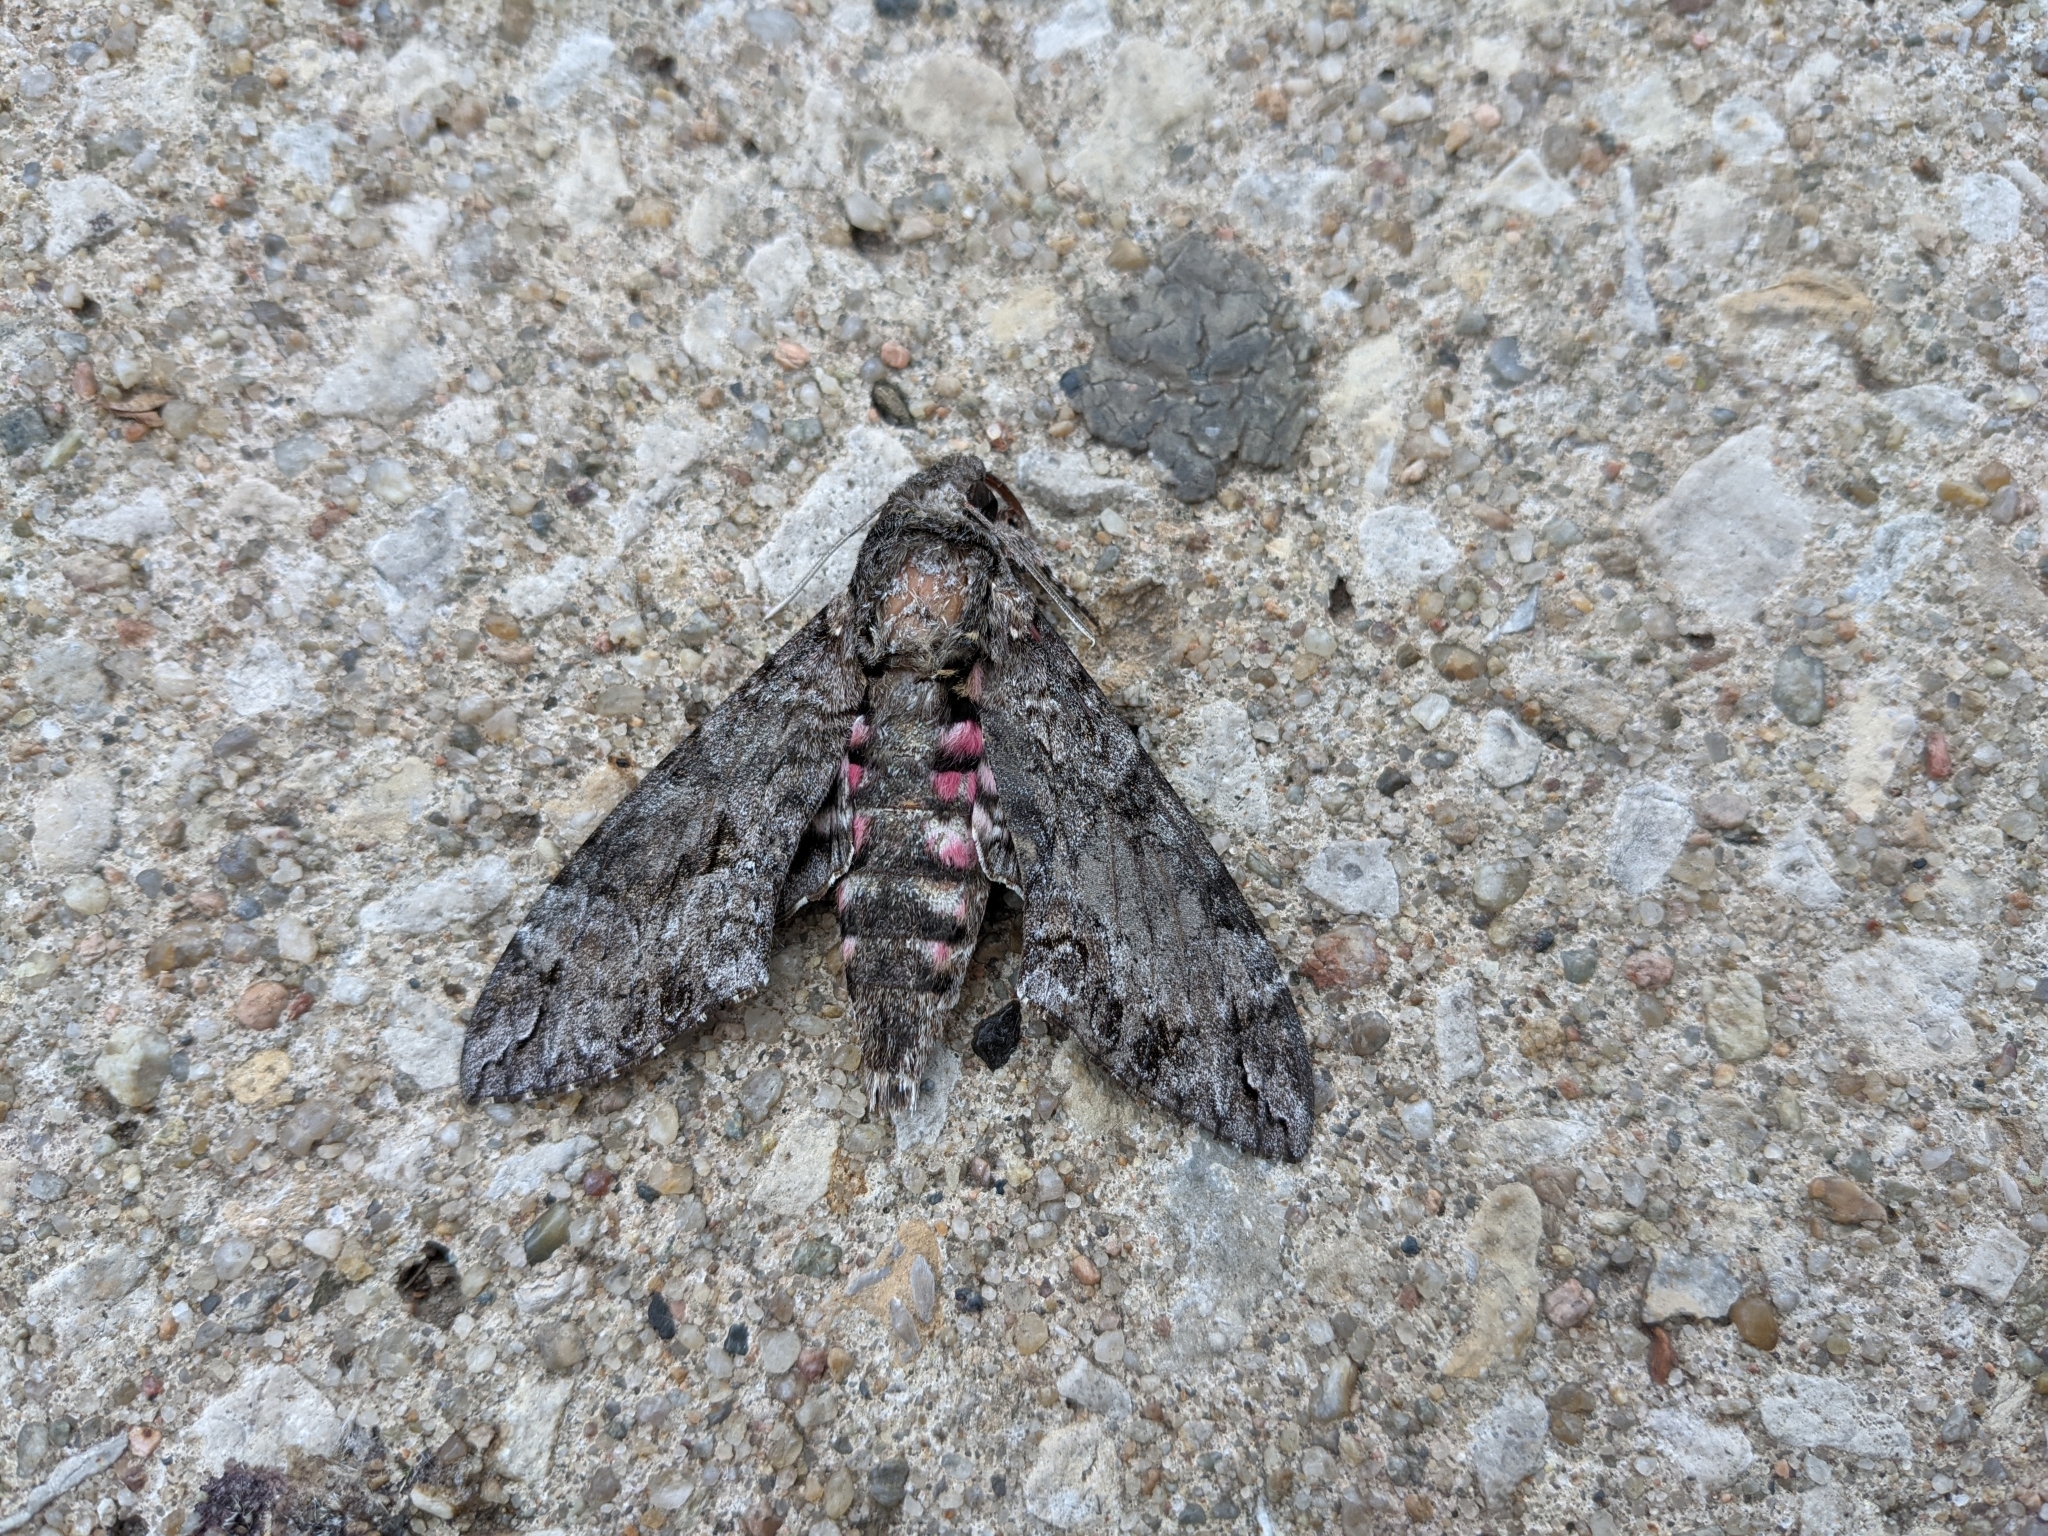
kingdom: Animalia
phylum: Arthropoda
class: Insecta
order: Lepidoptera
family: Sphingidae
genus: Agrius
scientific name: Agrius cingulata
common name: Pink-spotted hawkmoth
